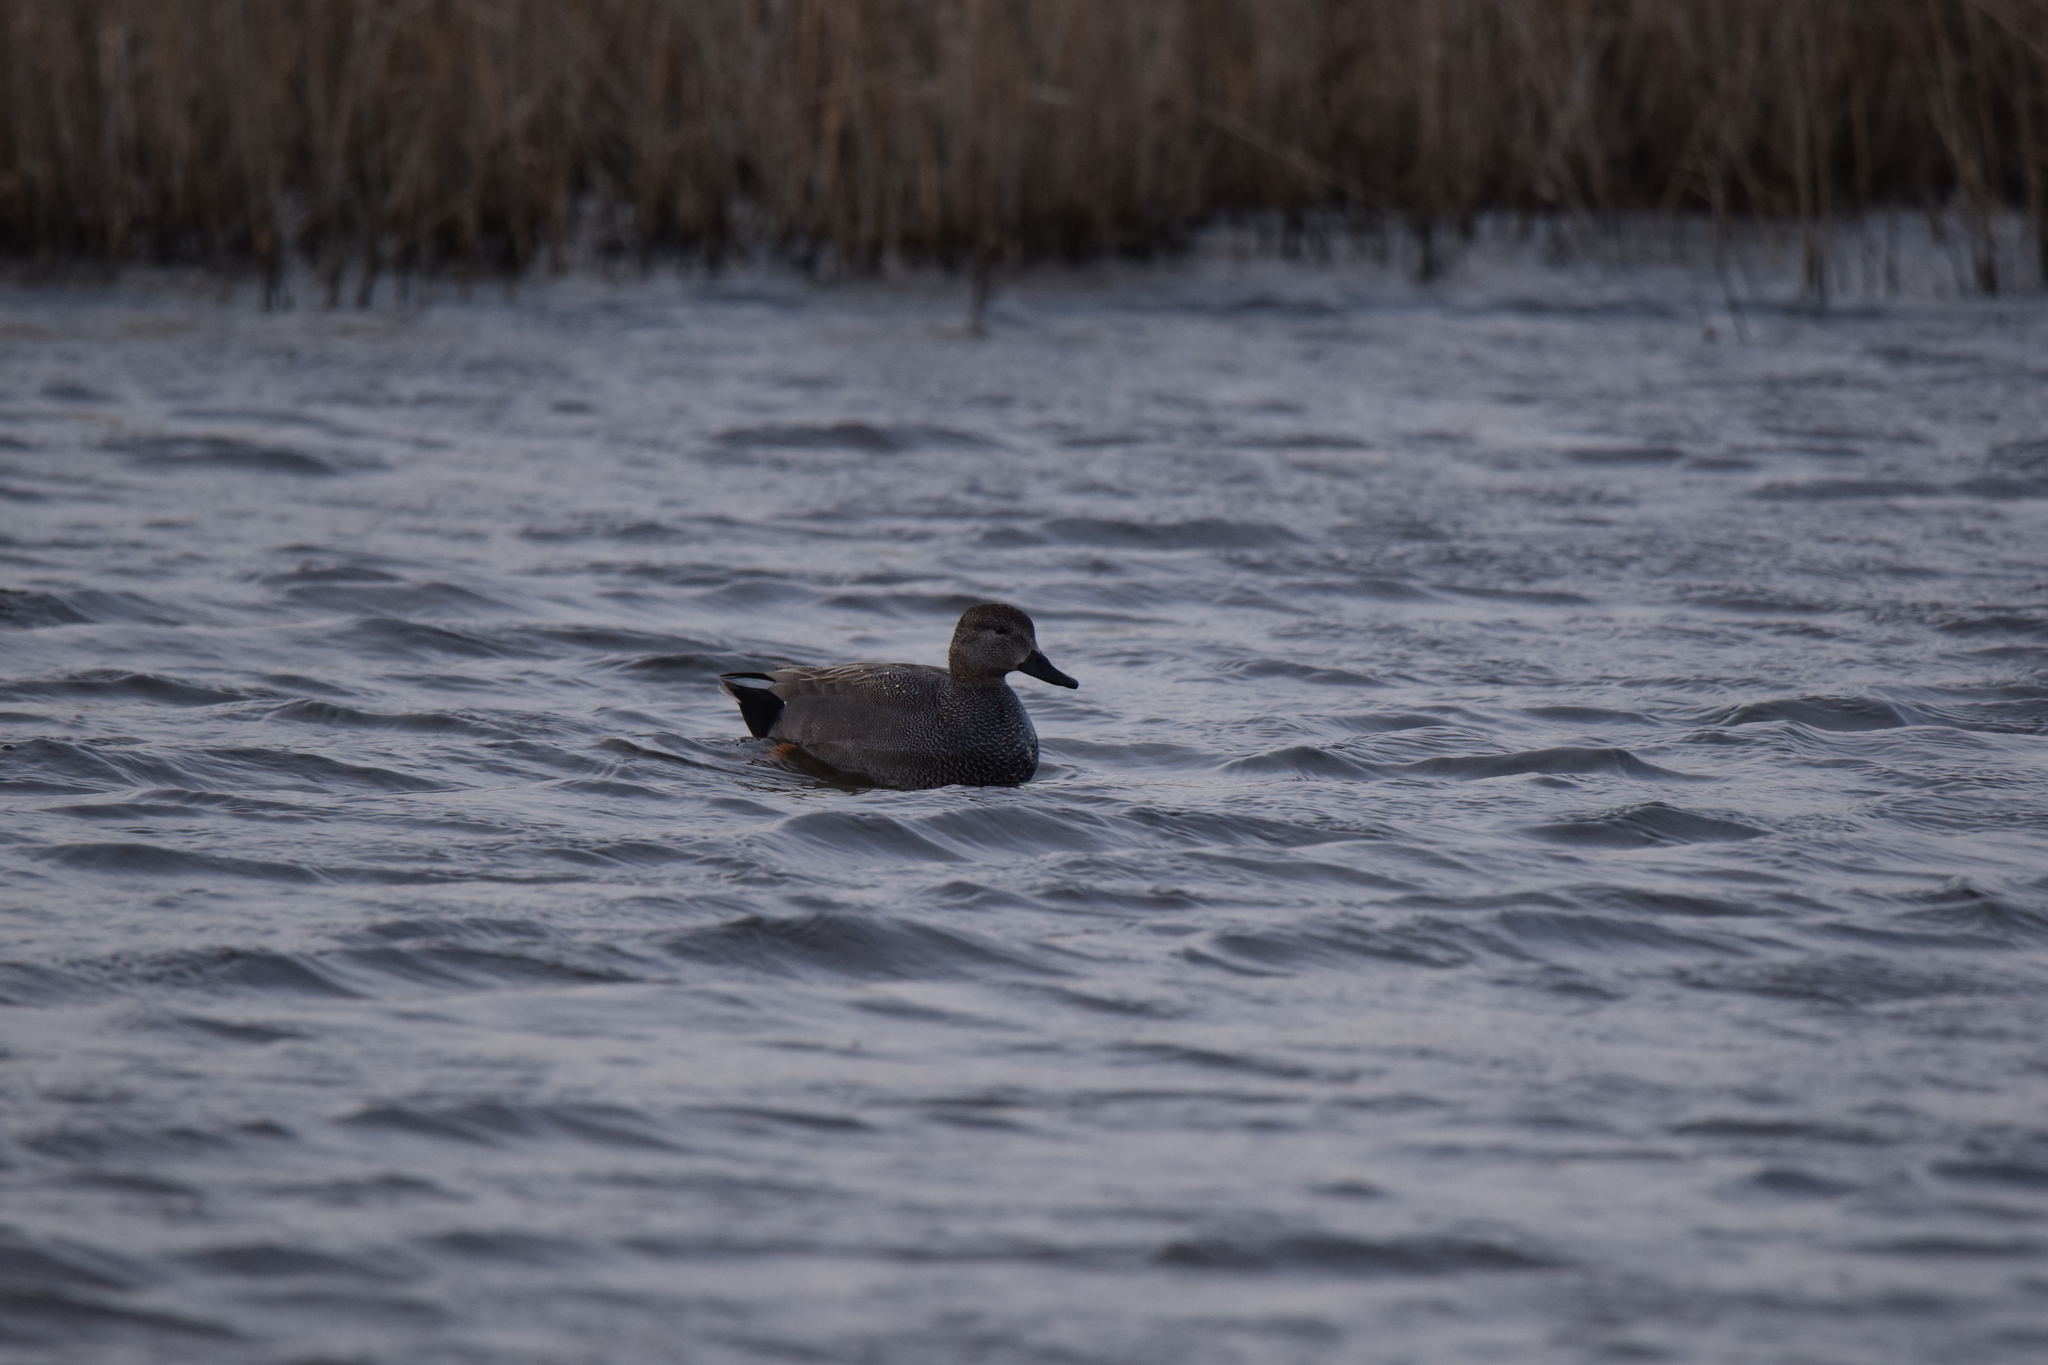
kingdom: Animalia
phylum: Chordata
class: Aves
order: Anseriformes
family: Anatidae
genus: Mareca
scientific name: Mareca strepera
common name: Gadwall
